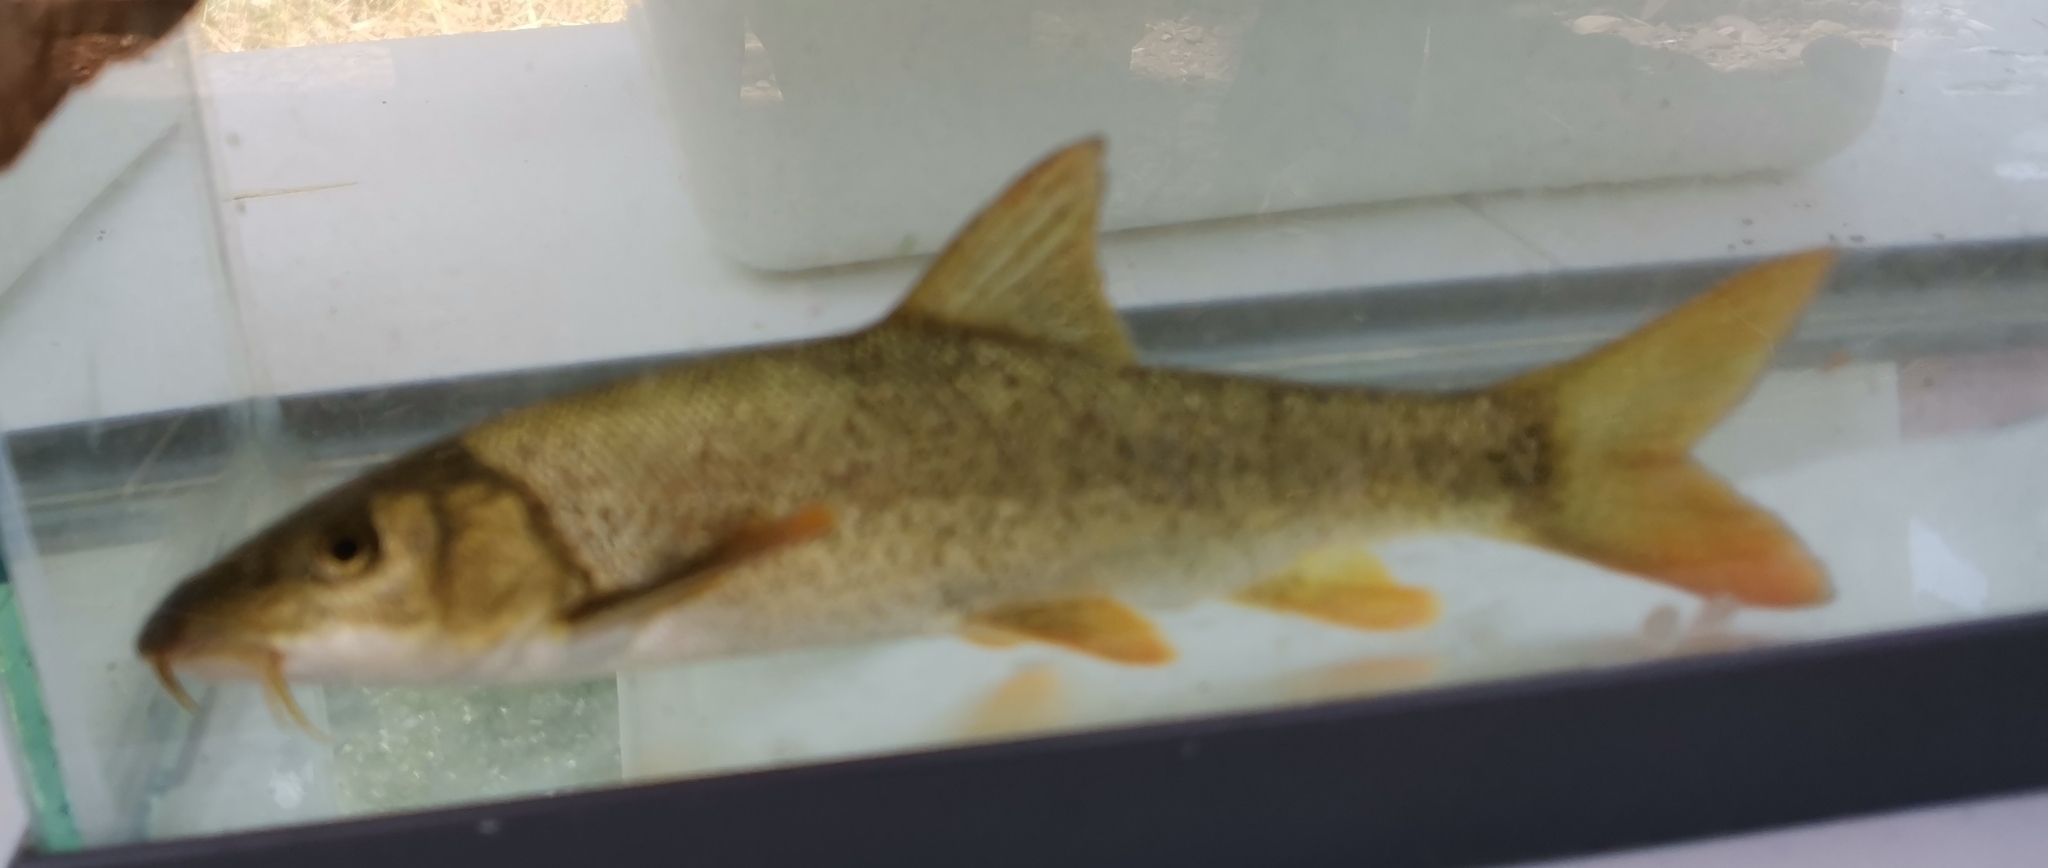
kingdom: Animalia
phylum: Chordata
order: Cypriniformes
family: Cyprinidae
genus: Barbus
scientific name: Barbus barbus
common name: Barbel
